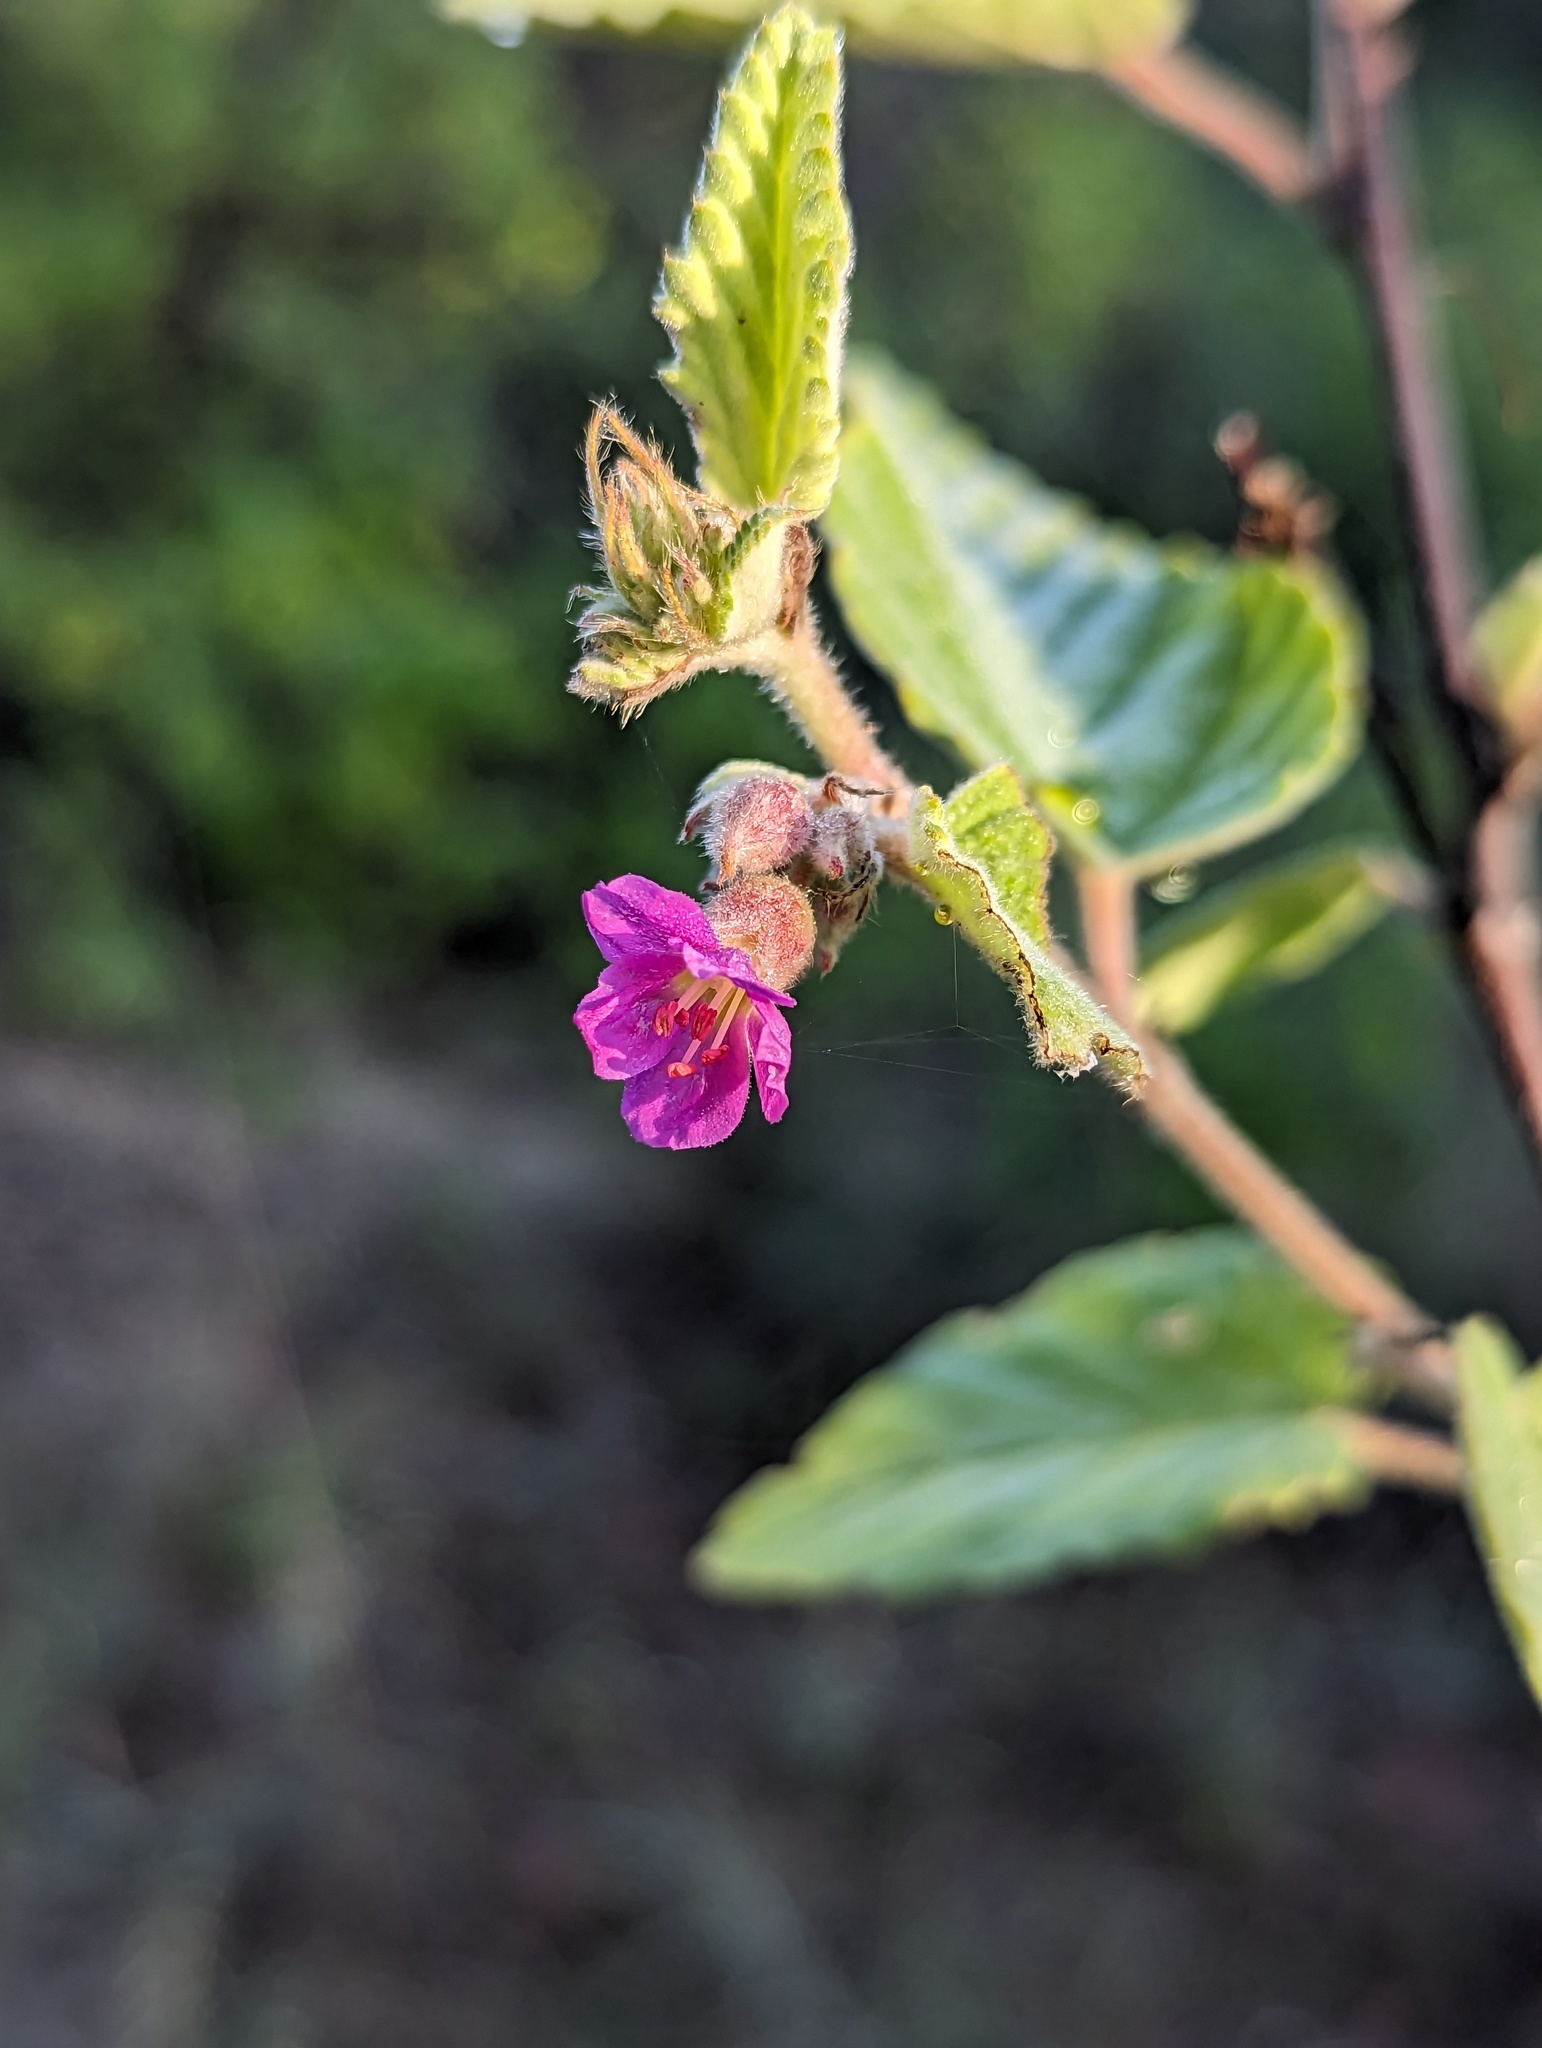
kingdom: Plantae
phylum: Tracheophyta
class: Magnoliopsida
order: Malvales
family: Malvaceae
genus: Melochia
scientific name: Melochia tomentosa
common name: Black torch
